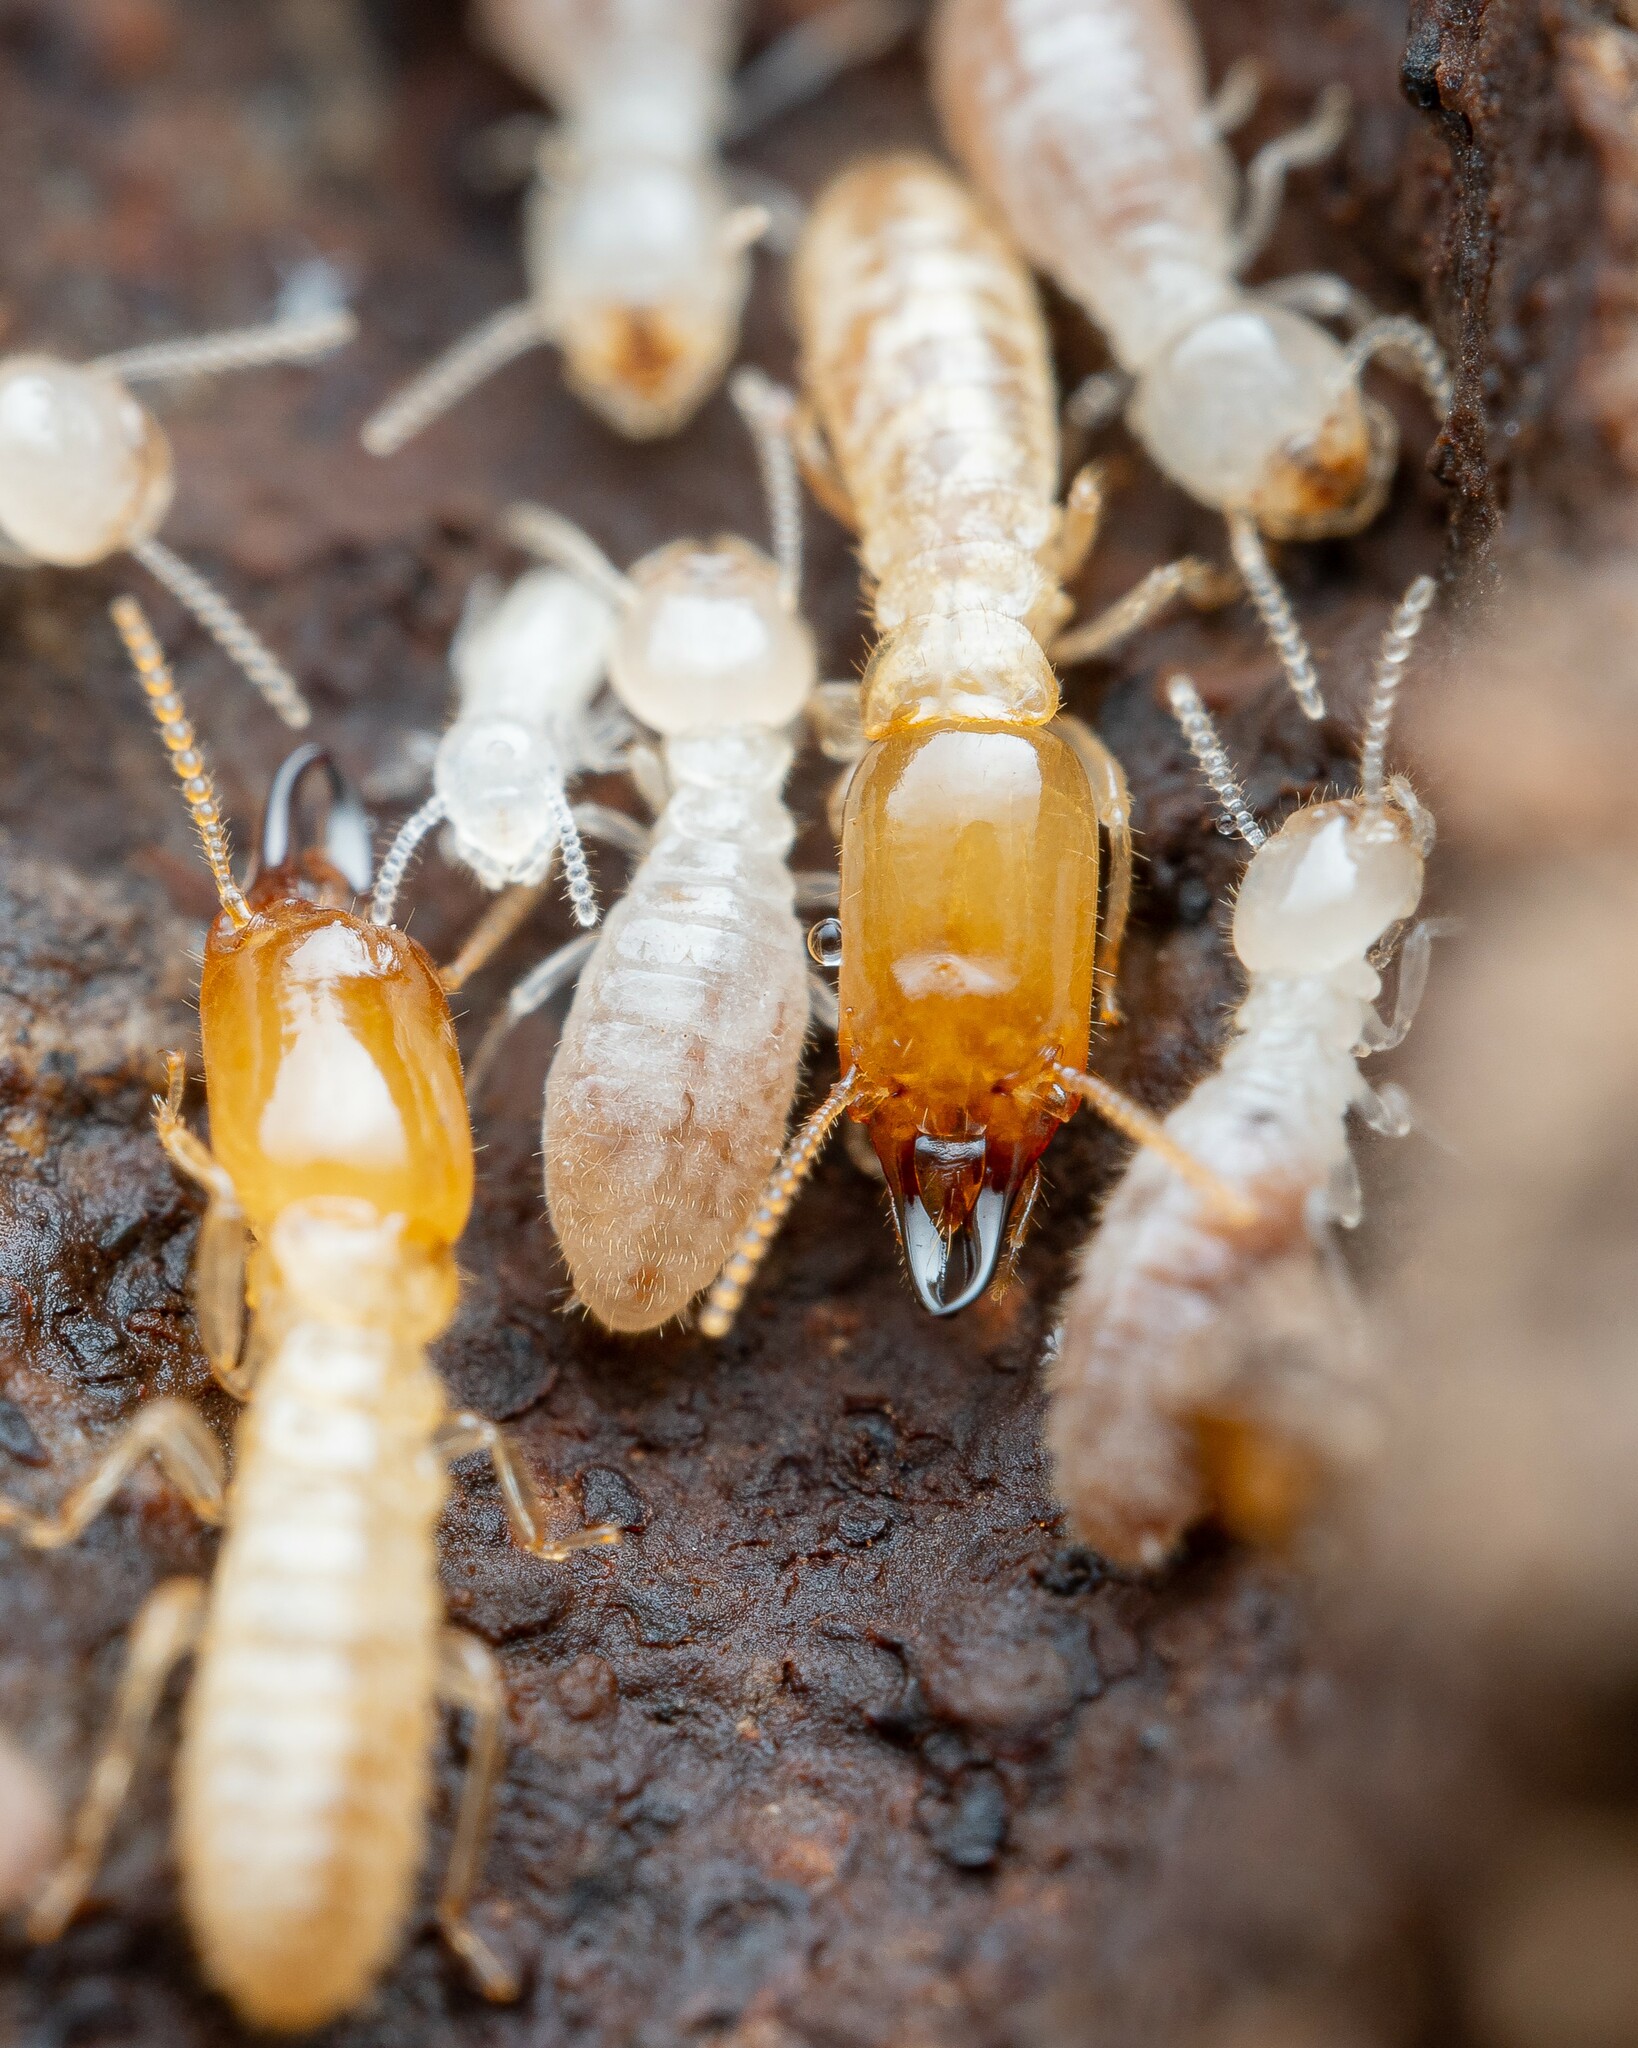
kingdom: Animalia
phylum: Arthropoda
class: Insecta
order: Blattodea
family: Rhinotermitidae
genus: Reticulitermes
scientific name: Reticulitermes
